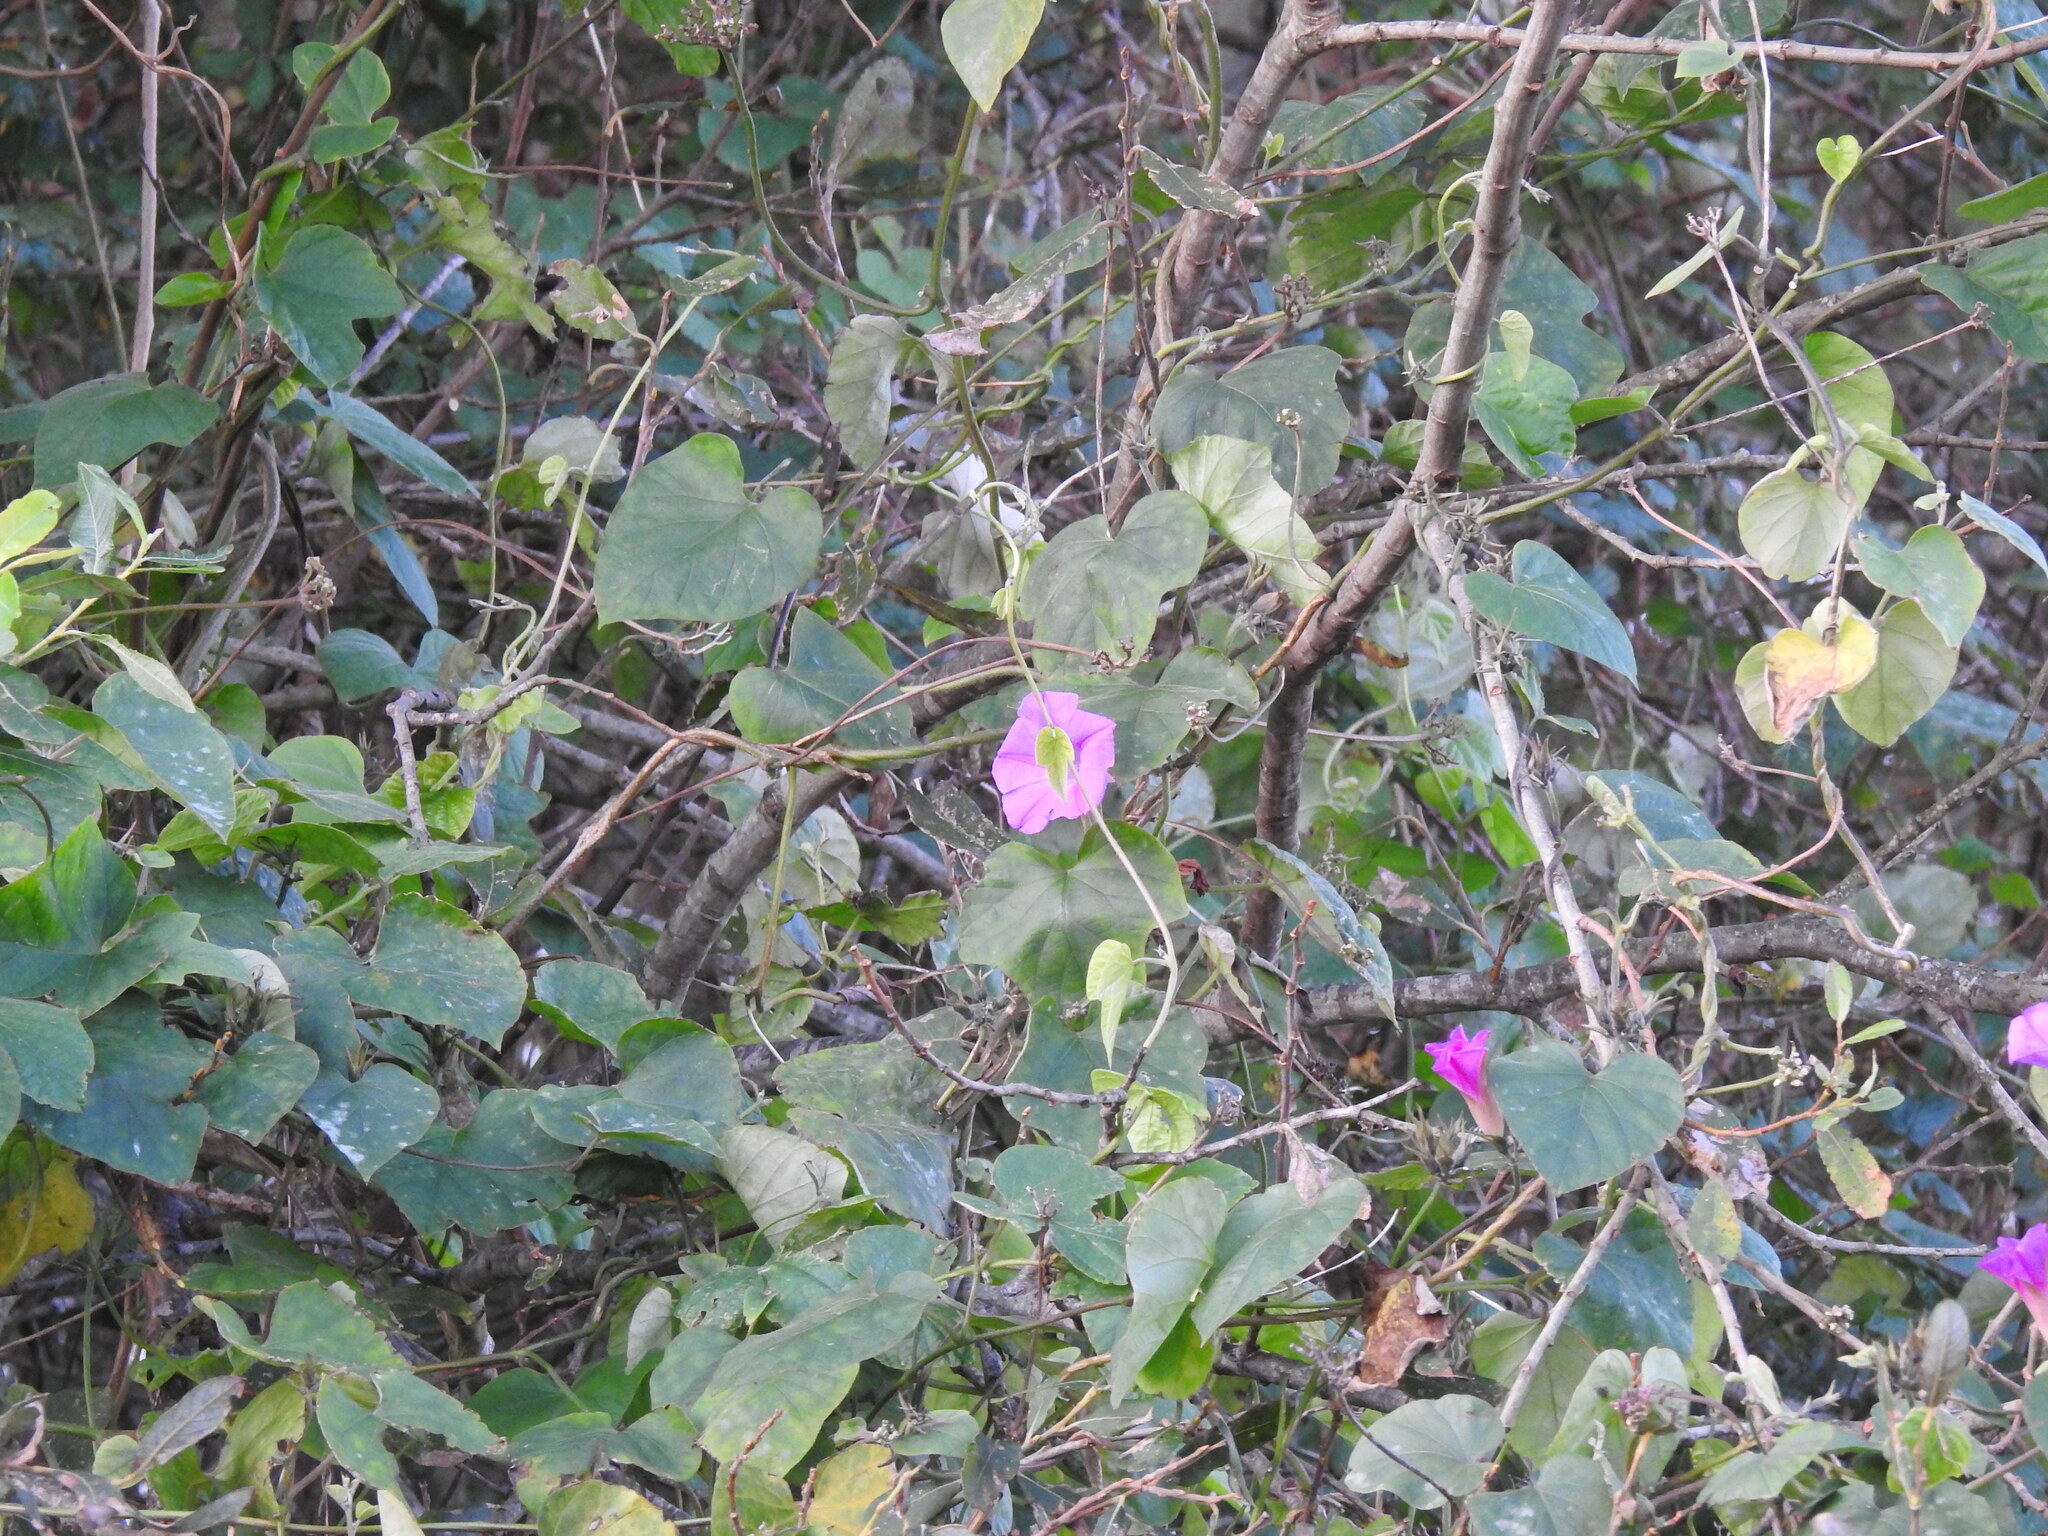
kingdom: Plantae
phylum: Tracheophyta
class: Magnoliopsida
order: Solanales
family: Convolvulaceae
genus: Ipomoea
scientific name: Ipomoea indica
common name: Blue dawnflower
